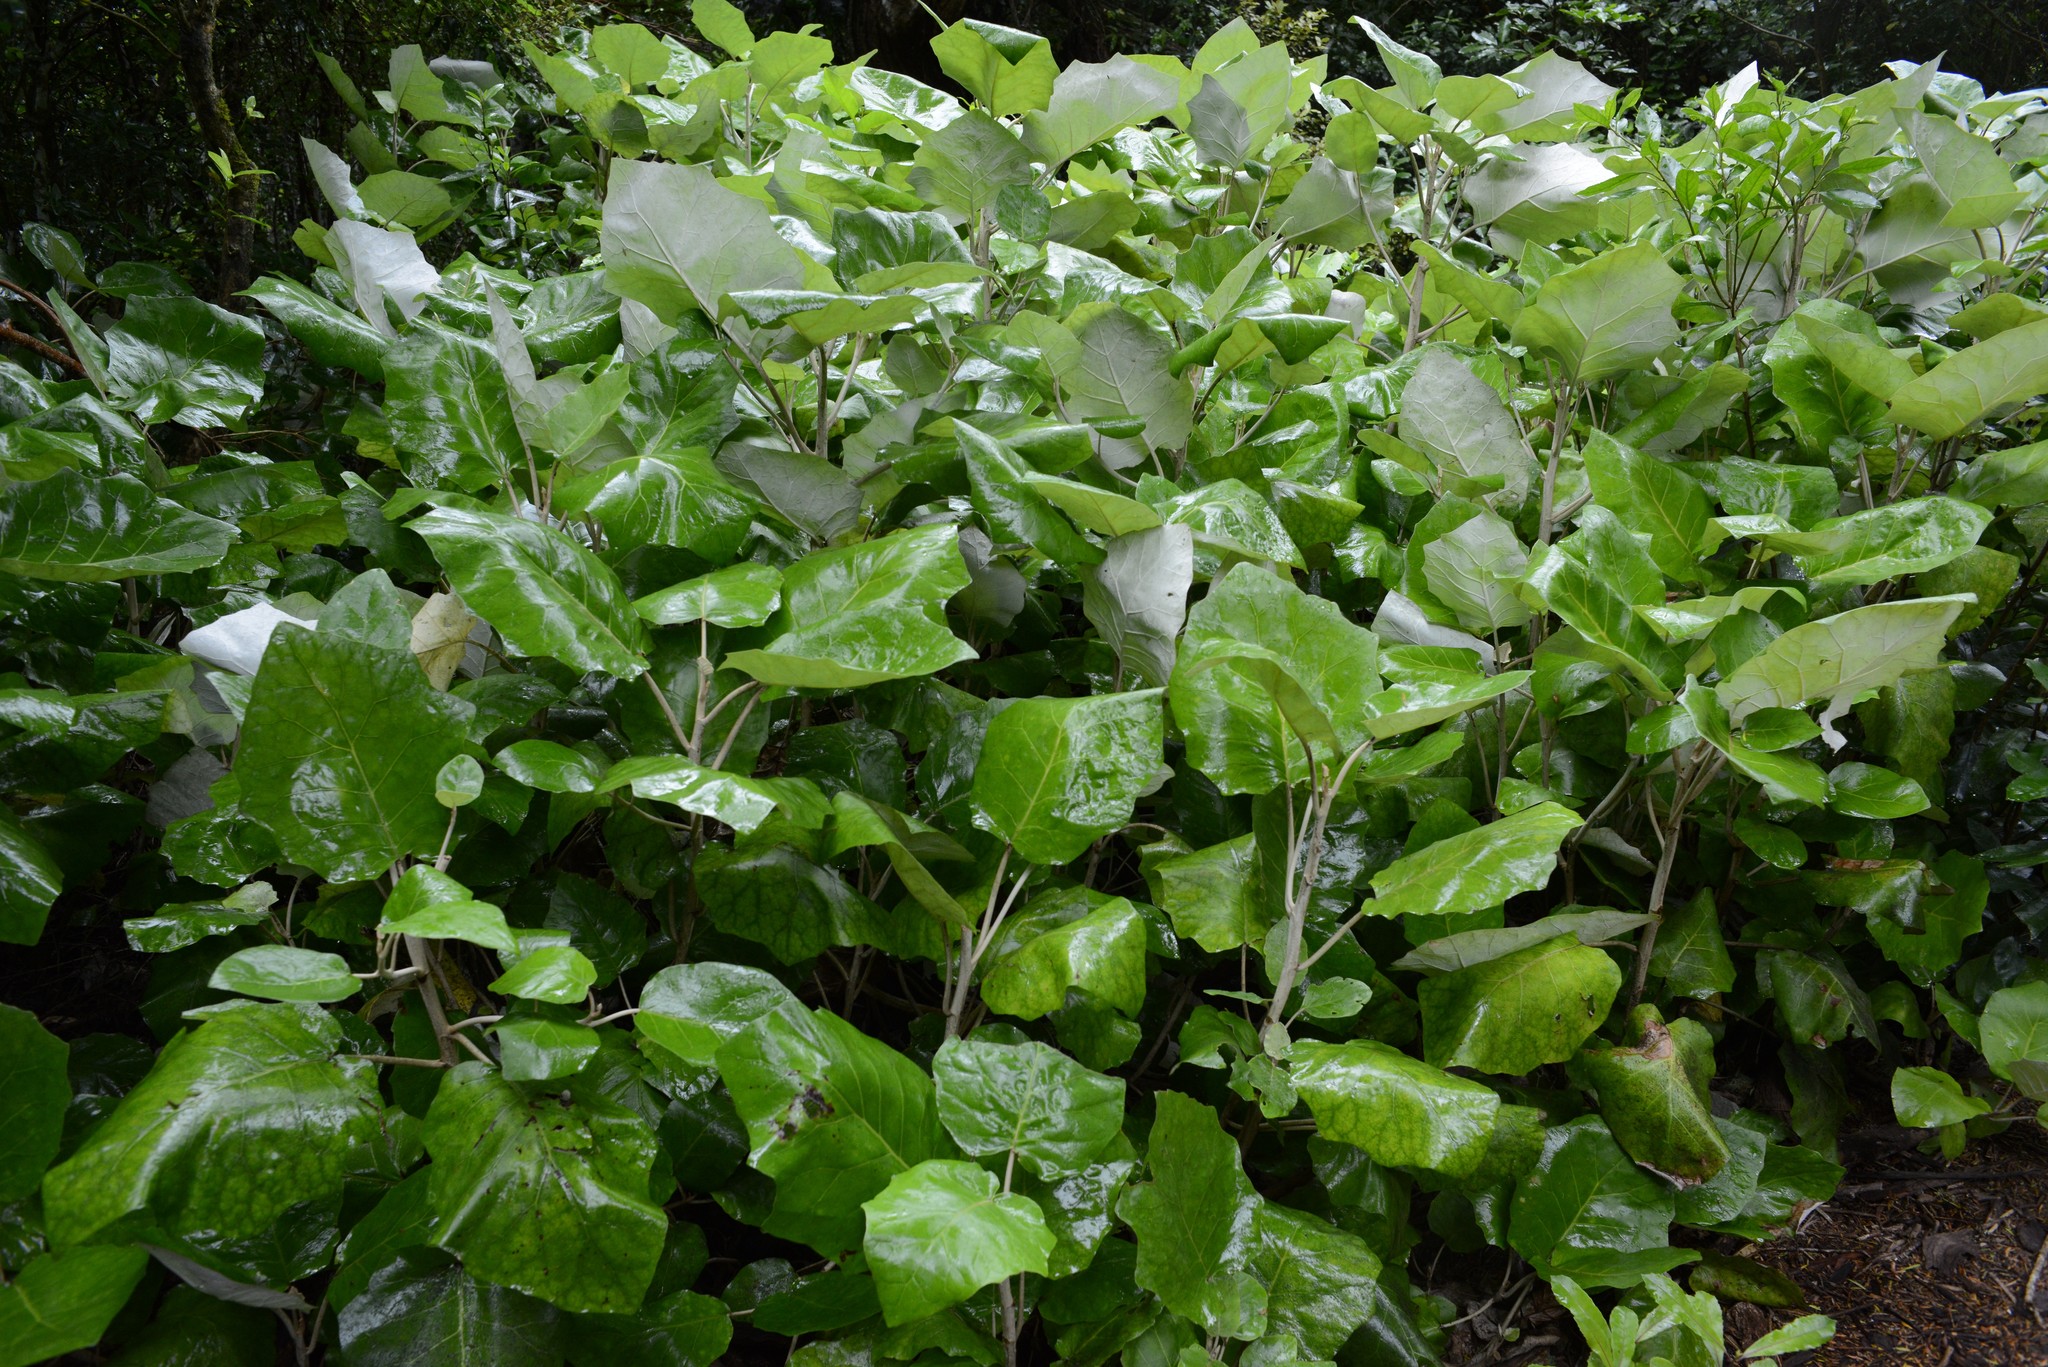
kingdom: Plantae
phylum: Tracheophyta
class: Magnoliopsida
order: Asterales
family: Asteraceae
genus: Brachyglottis
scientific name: Brachyglottis repanda
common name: Hedge ragwort
